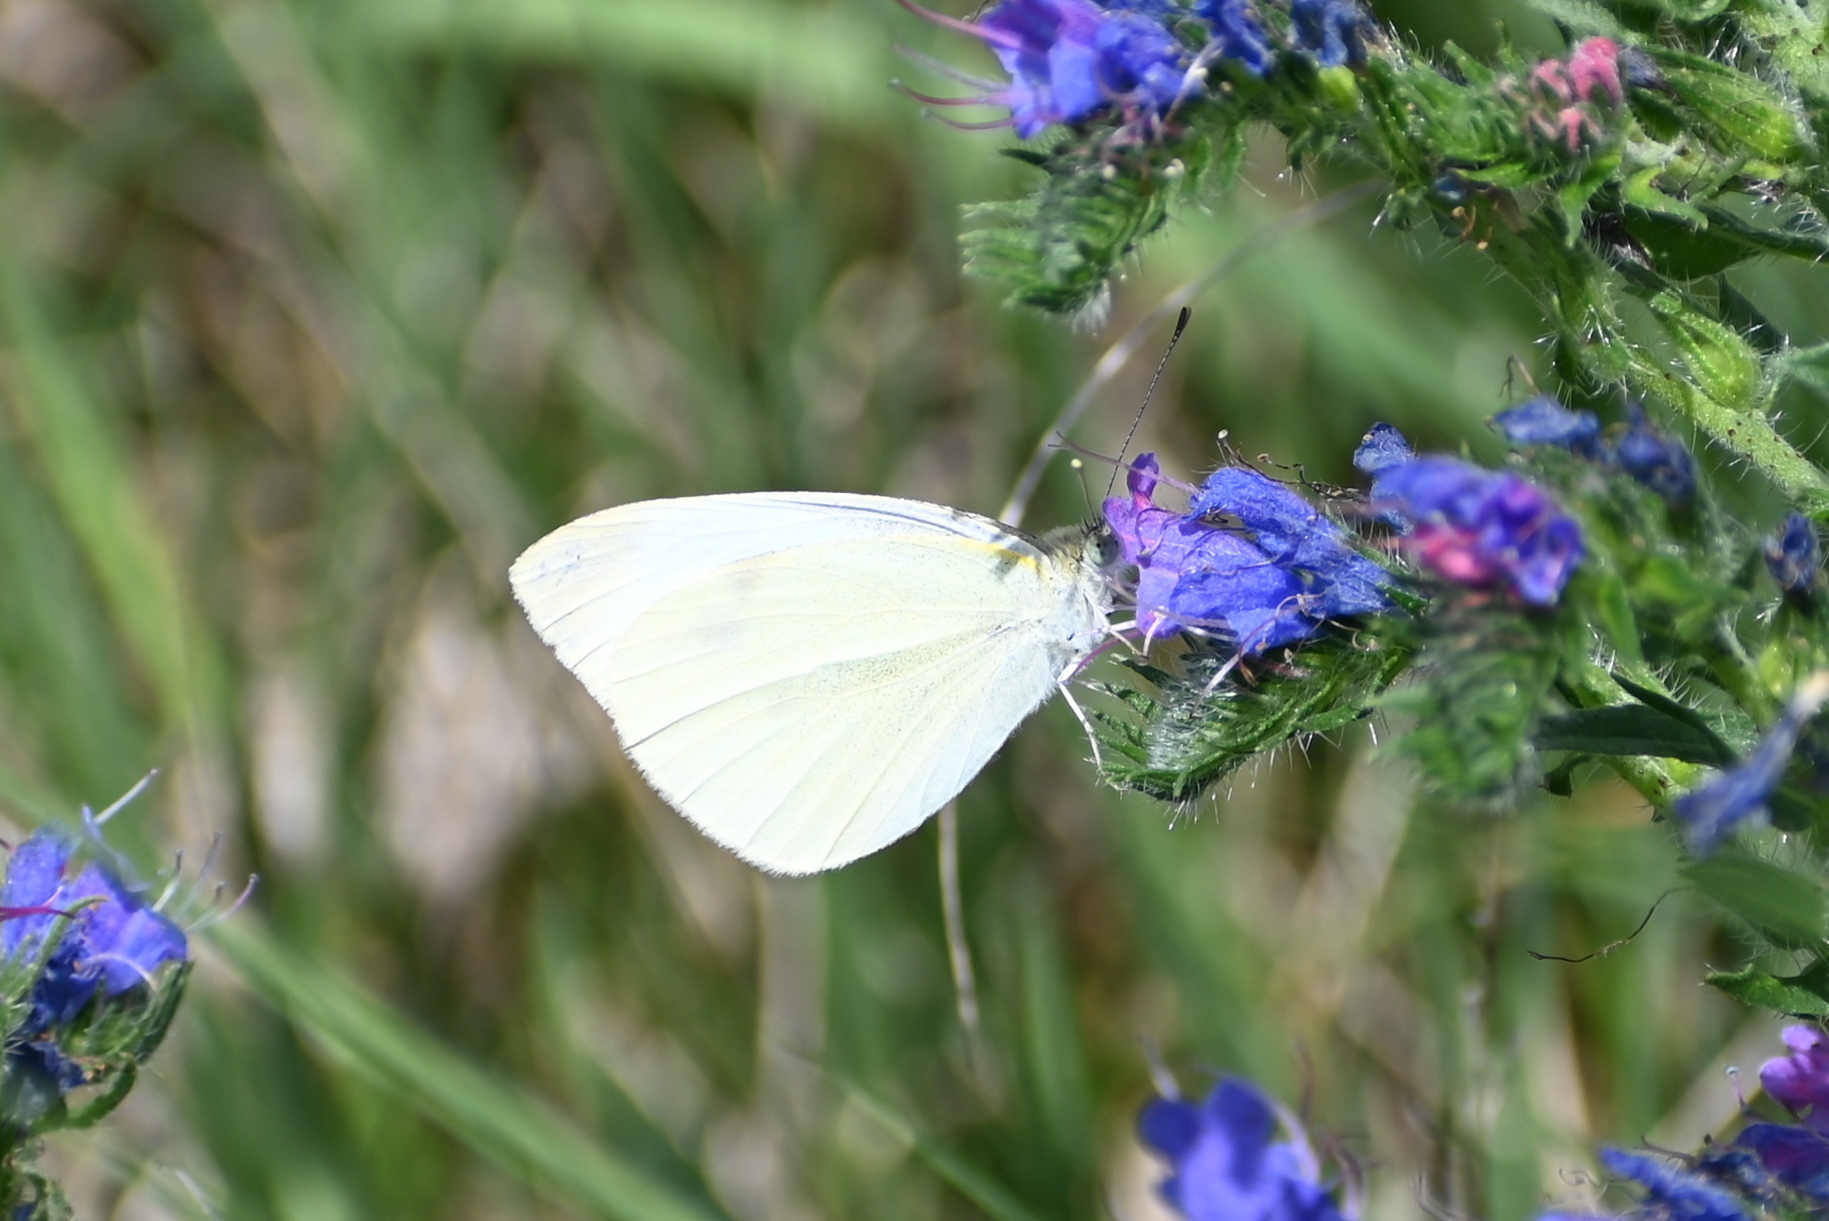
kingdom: Animalia
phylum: Arthropoda
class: Insecta
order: Lepidoptera
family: Pieridae
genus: Pieris
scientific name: Pieris rapae
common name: Small white
